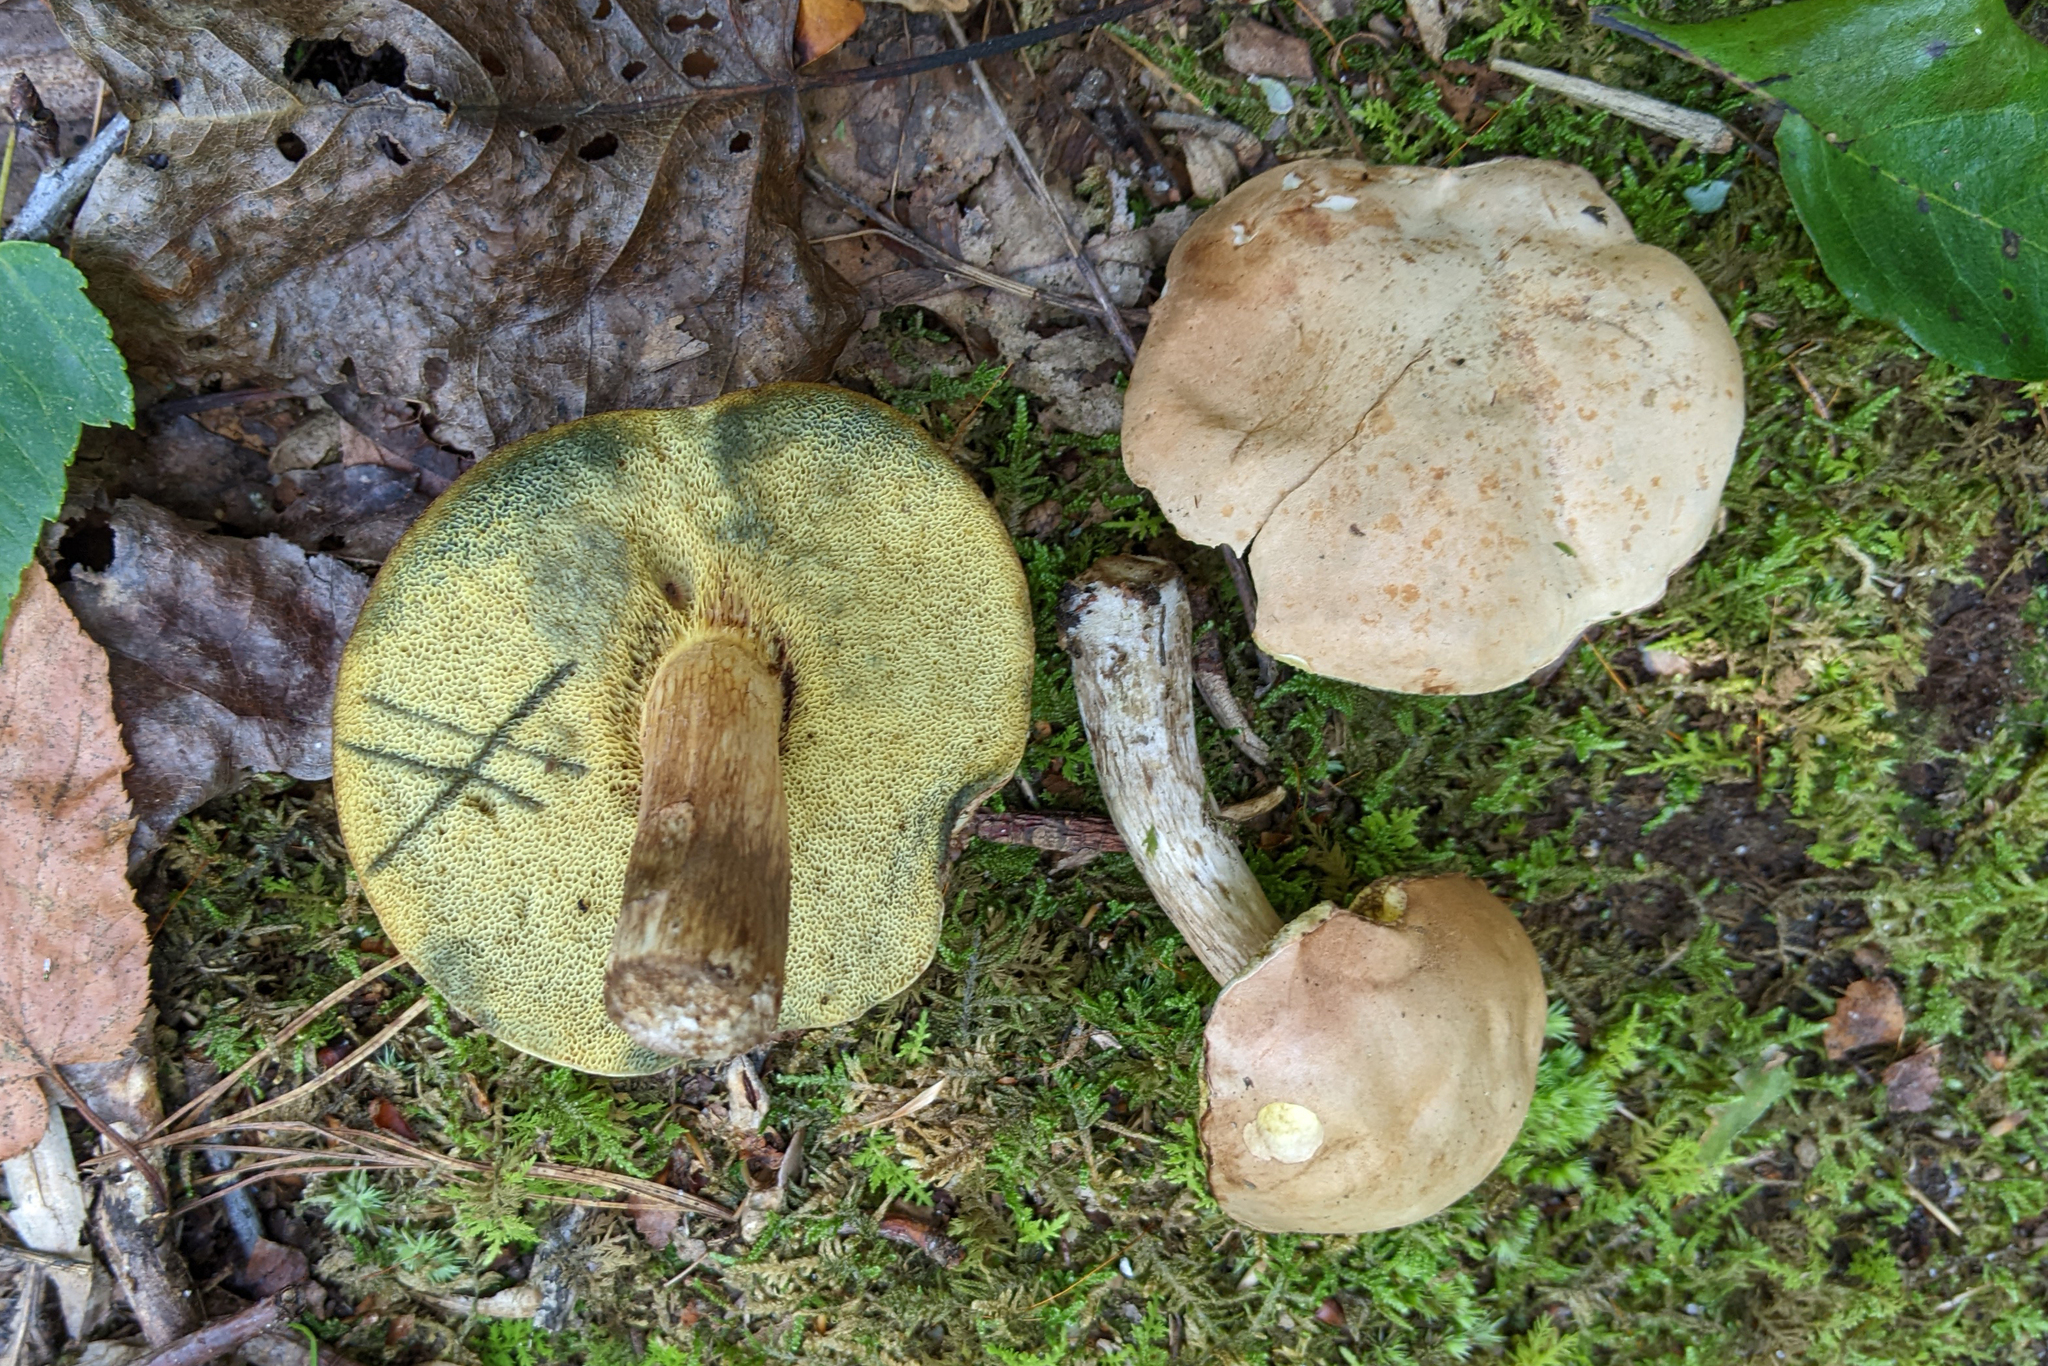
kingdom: Fungi
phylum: Basidiomycota
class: Agaricomycetes
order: Boletales
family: Boletaceae
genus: Imleria
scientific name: Imleria pallida
